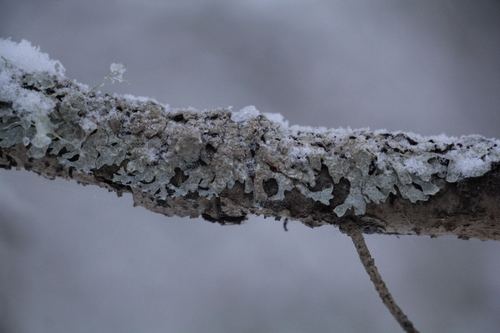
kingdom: Fungi
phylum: Ascomycota
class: Lecanoromycetes
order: Lecanorales
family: Parmeliaceae
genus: Parmelia
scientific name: Parmelia
